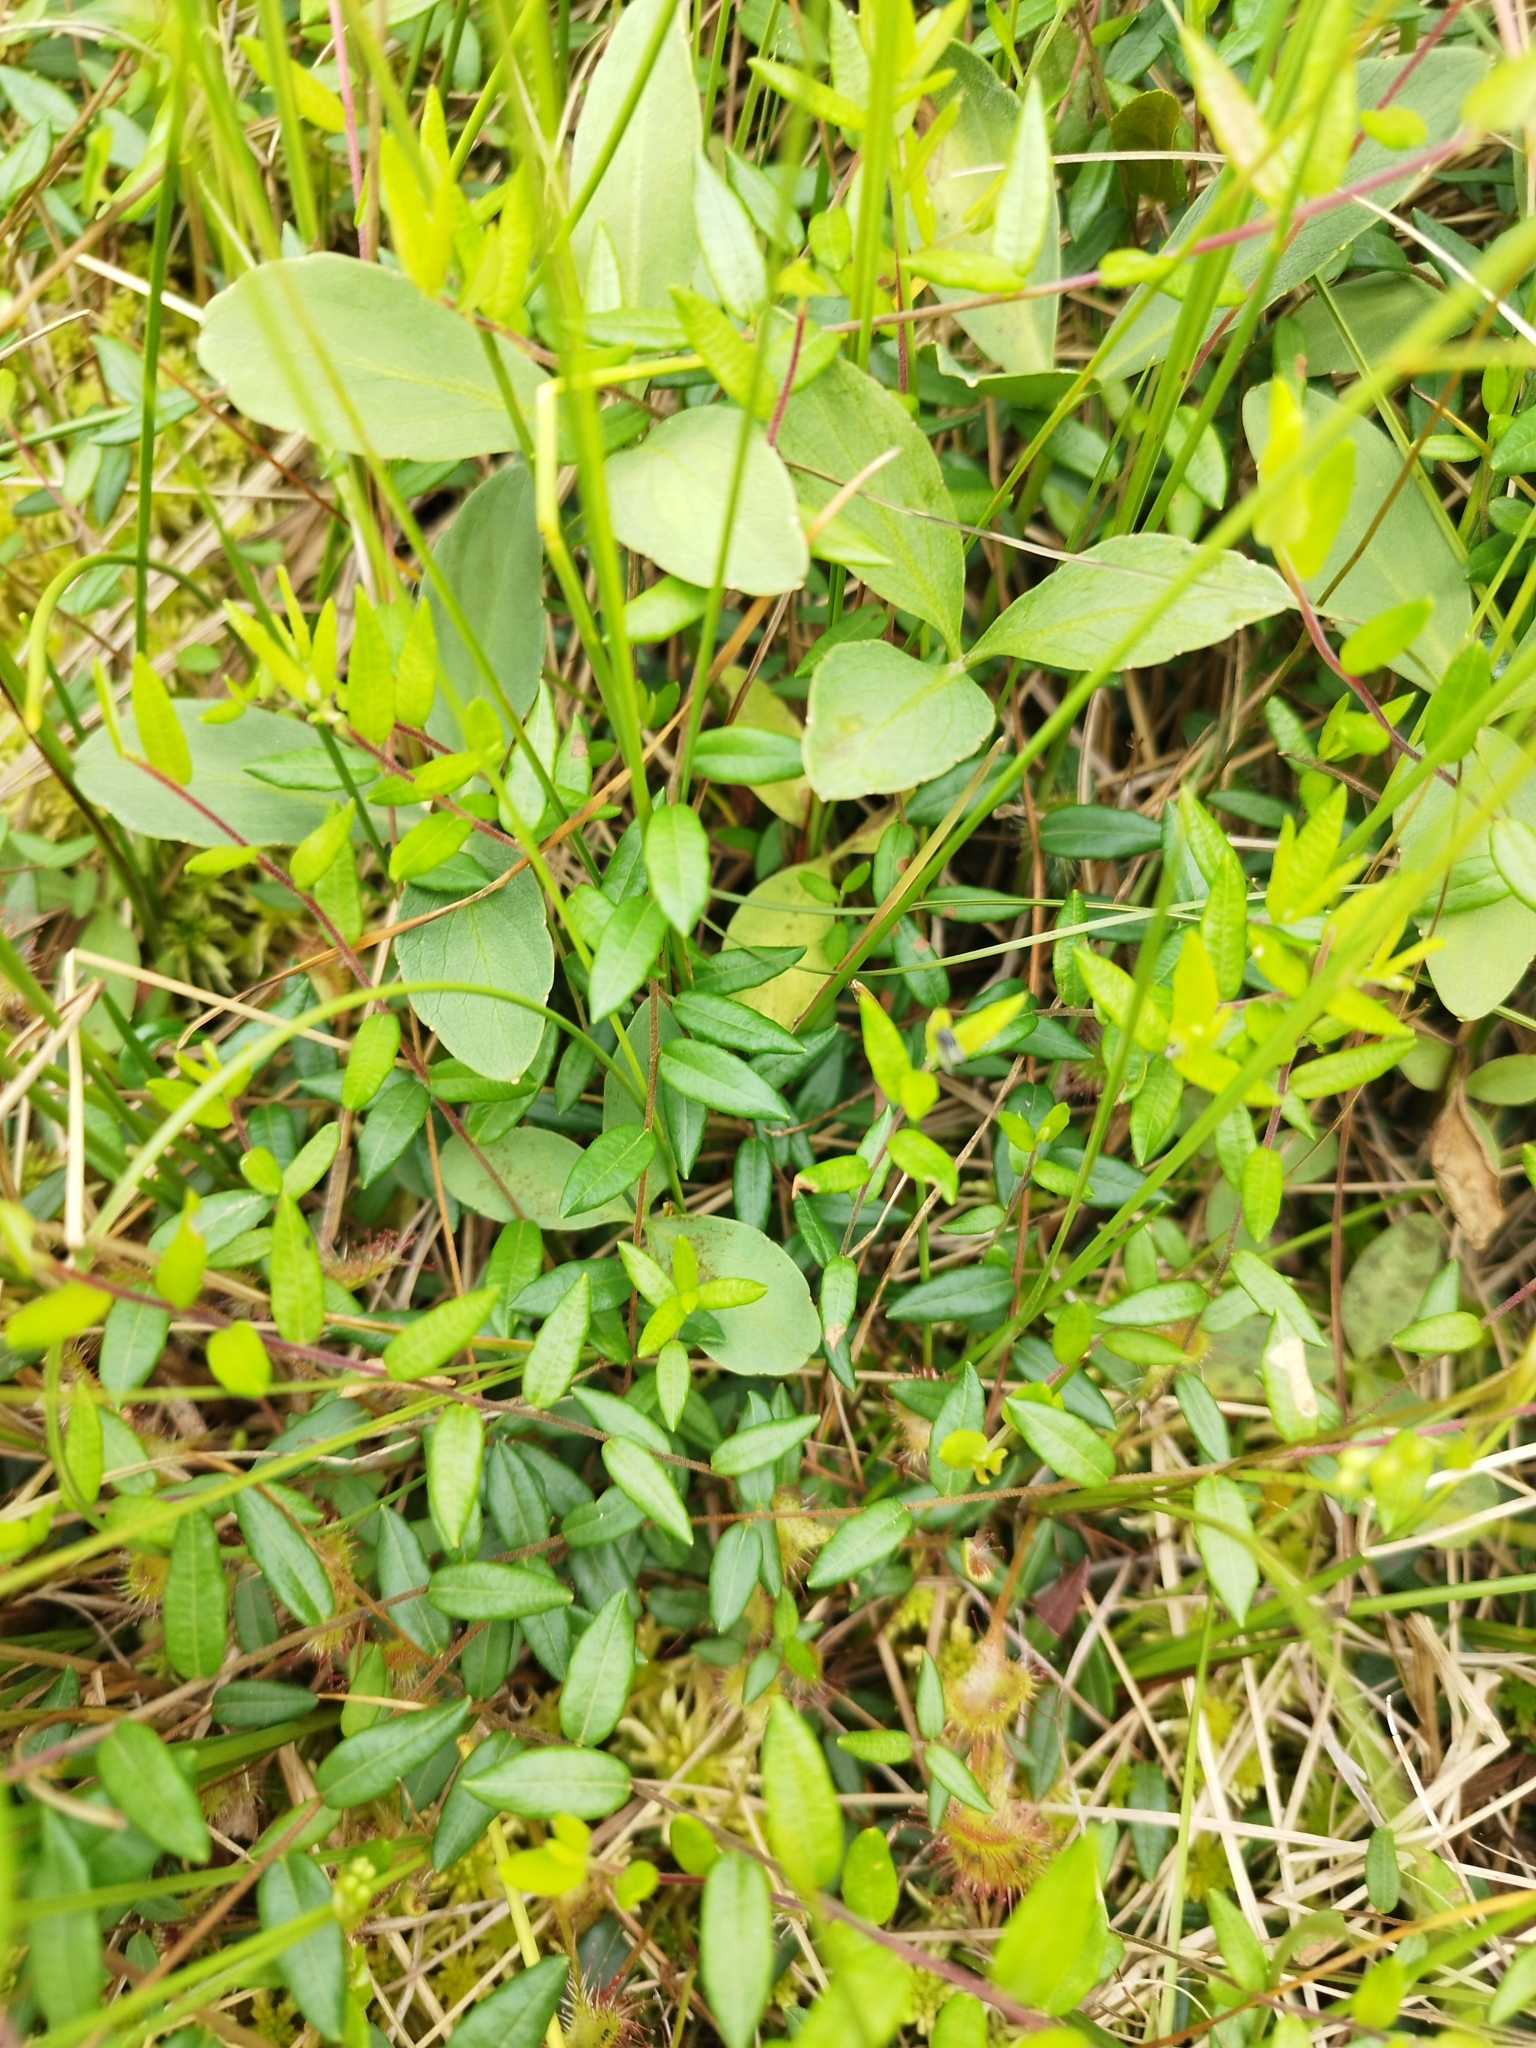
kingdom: Plantae
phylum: Tracheophyta
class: Magnoliopsida
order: Ericales
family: Ericaceae
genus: Vaccinium
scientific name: Vaccinium oxycoccos
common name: Cranberry
